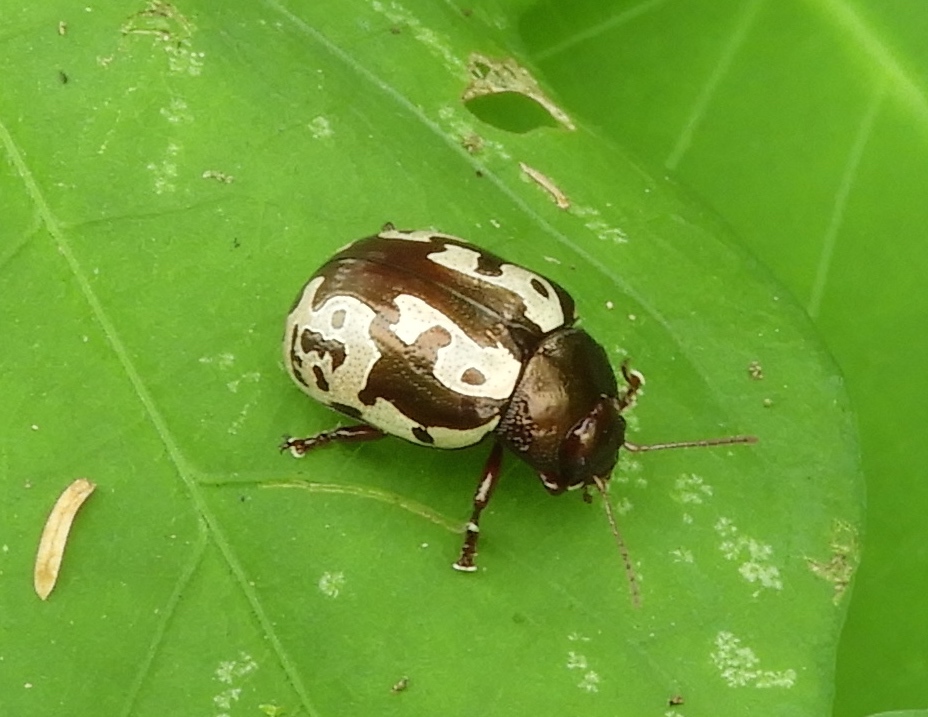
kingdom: Animalia
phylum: Arthropoda
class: Insecta
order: Coleoptera
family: Chrysomelidae
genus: Calligrapha
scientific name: Calligrapha intermedia
